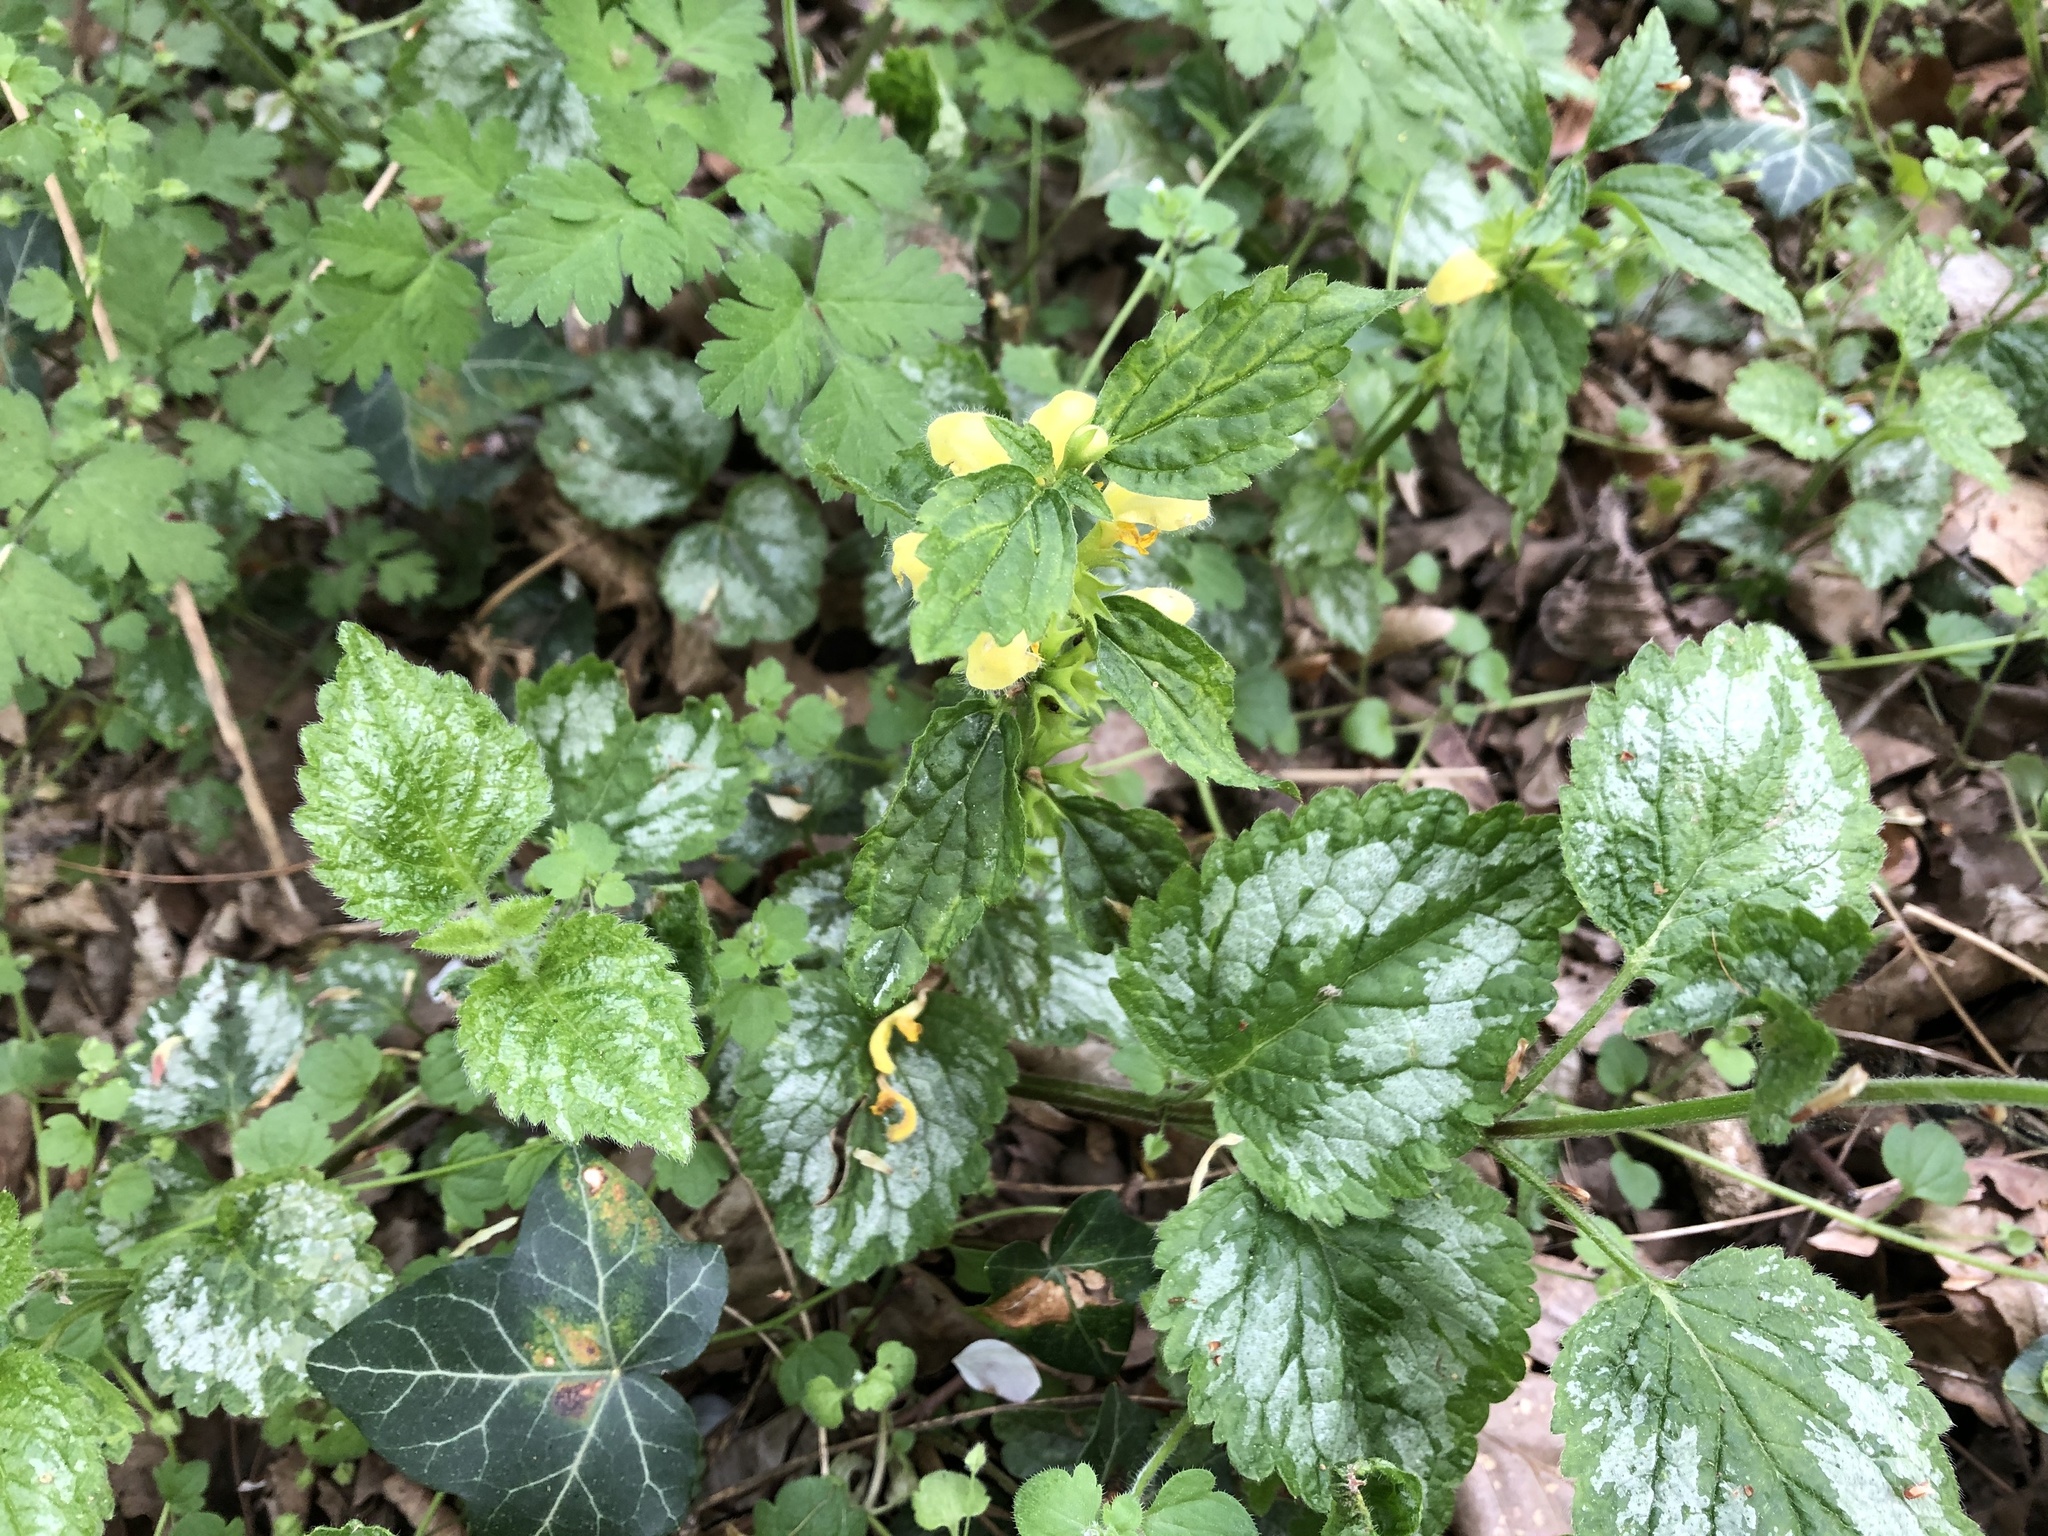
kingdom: Plantae
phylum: Tracheophyta
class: Magnoliopsida
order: Lamiales
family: Lamiaceae
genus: Lamium
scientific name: Lamium galeobdolon
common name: Yellow archangel
